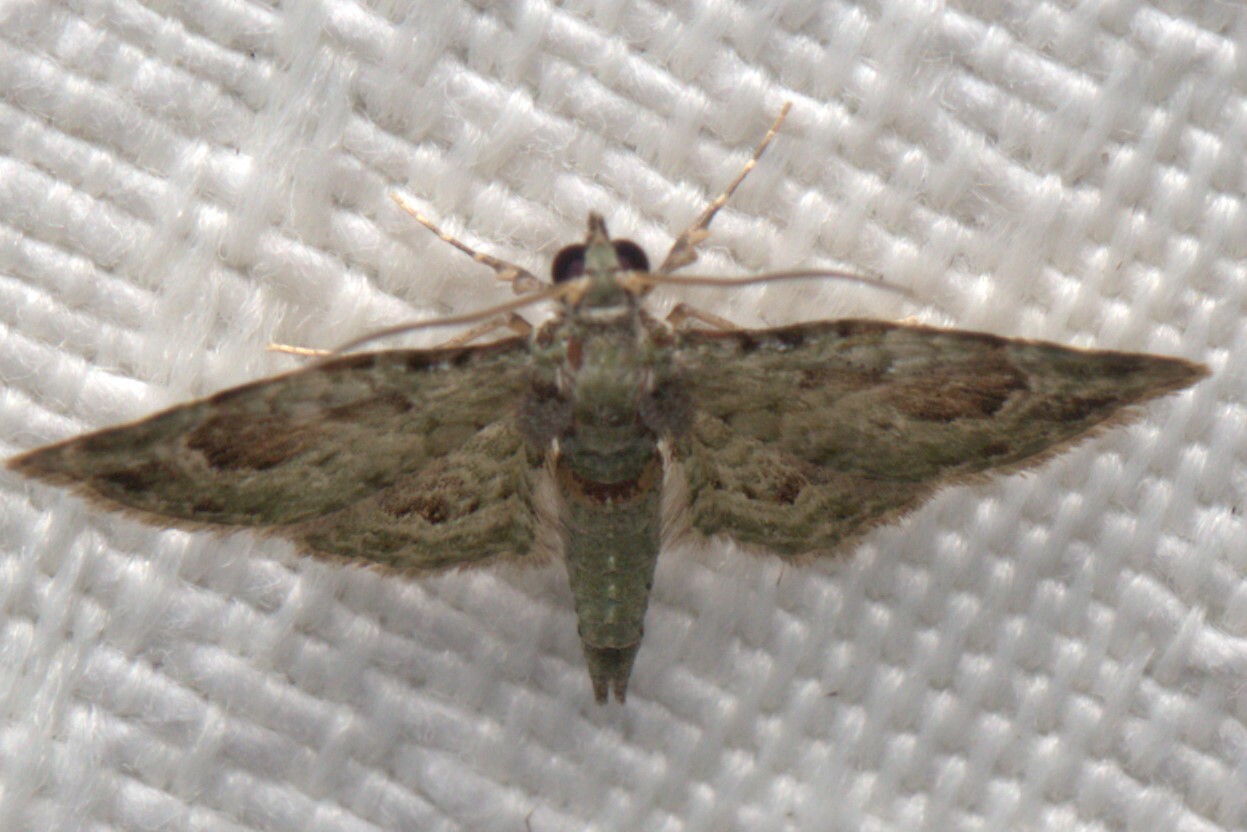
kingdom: Animalia
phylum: Arthropoda
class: Insecta
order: Lepidoptera
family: Geometridae
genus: Calluga
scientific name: Calluga costalis
